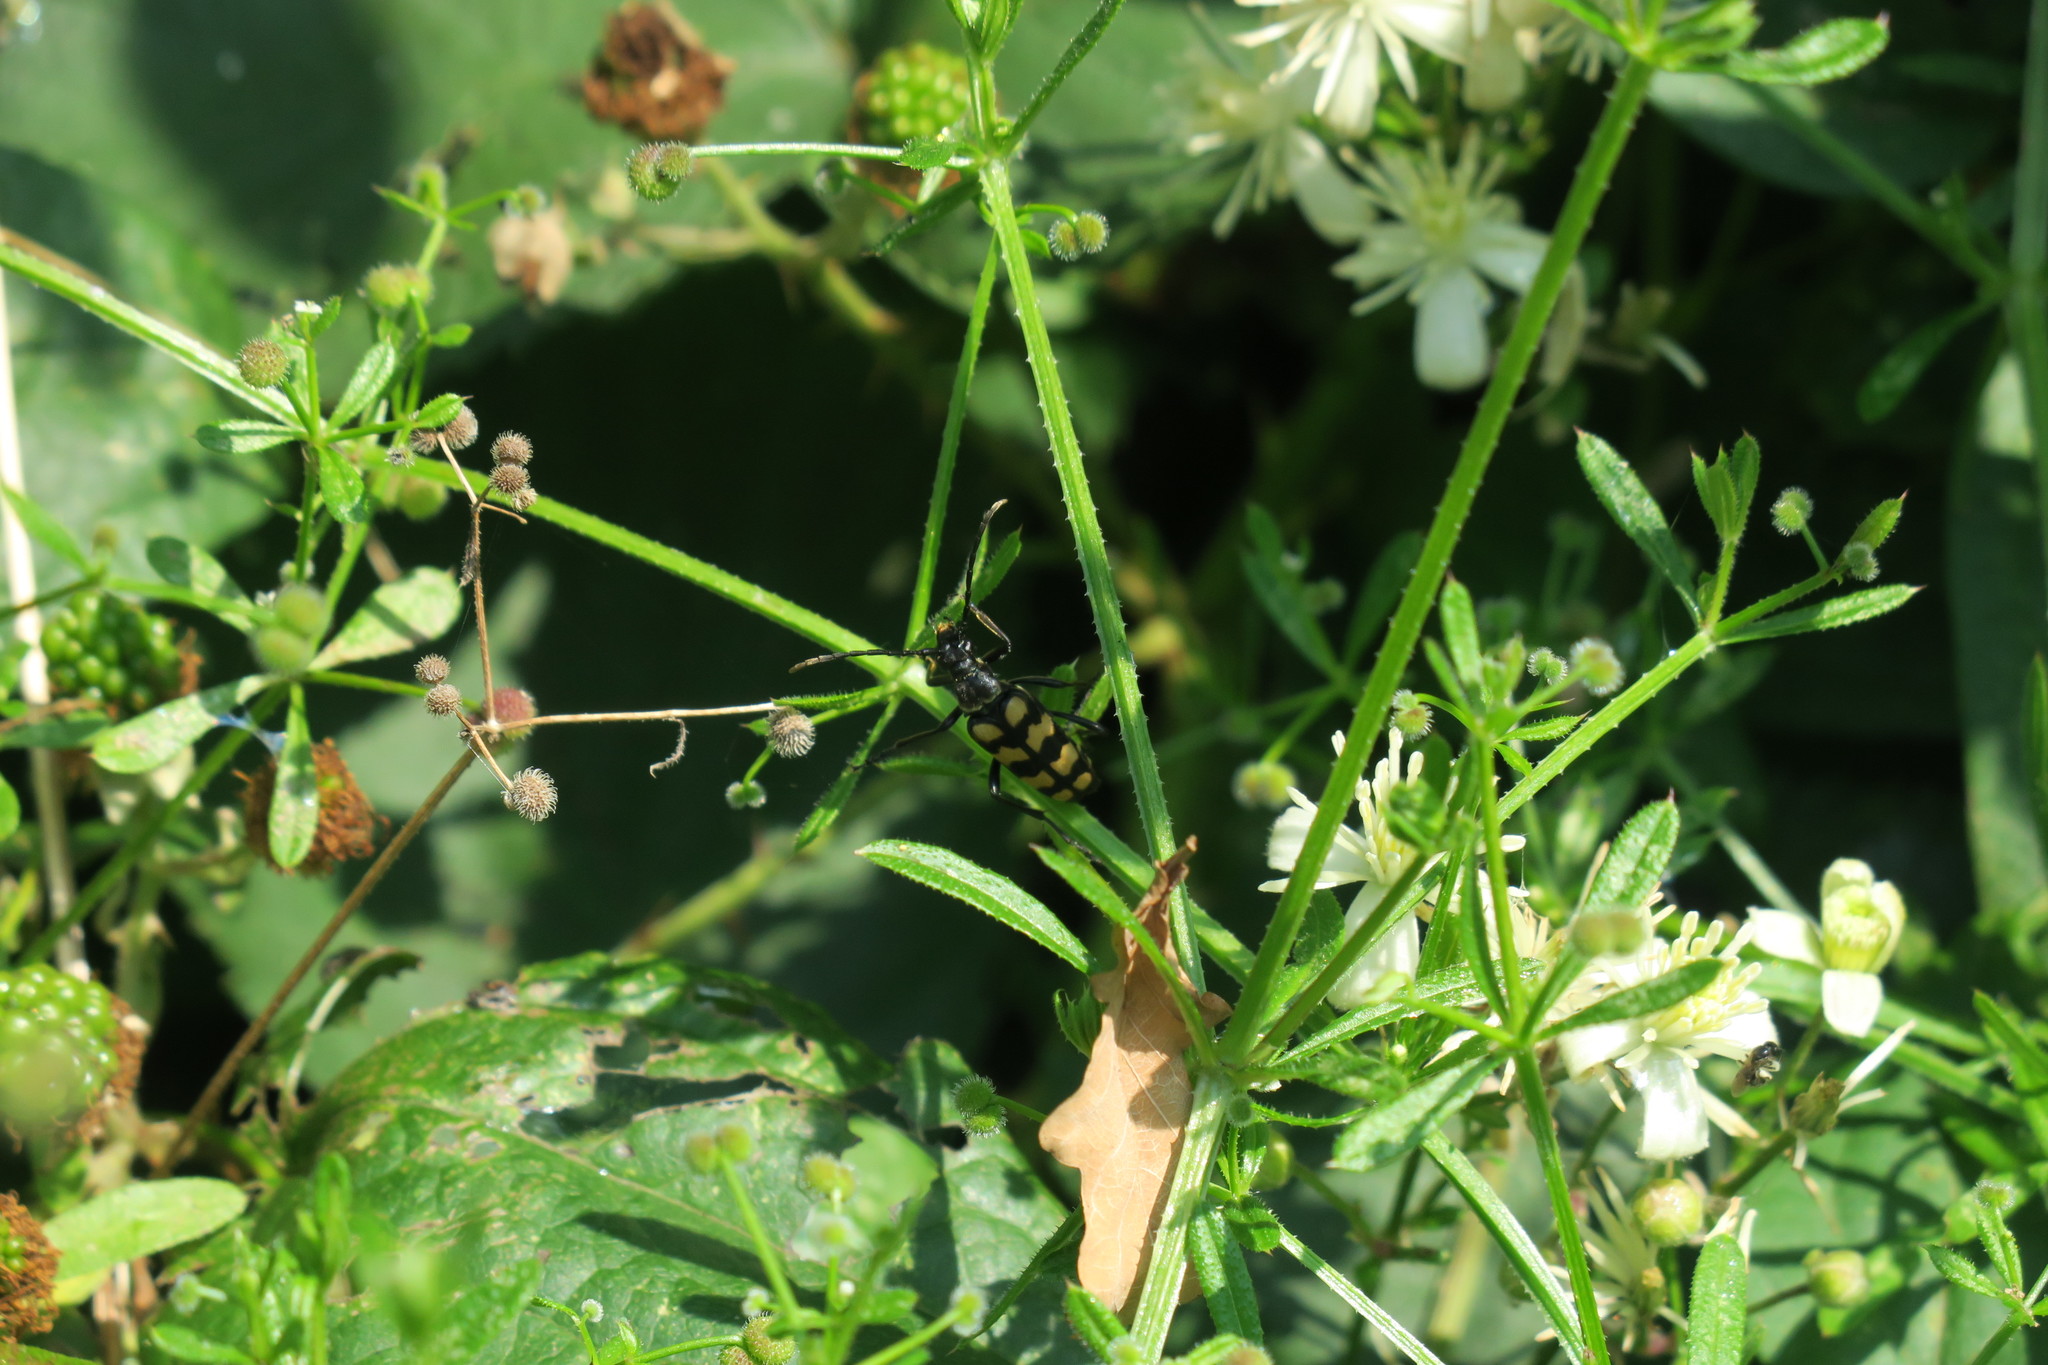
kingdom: Animalia
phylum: Arthropoda
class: Insecta
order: Coleoptera
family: Cerambycidae
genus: Leptura
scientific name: Leptura quadrifasciata
